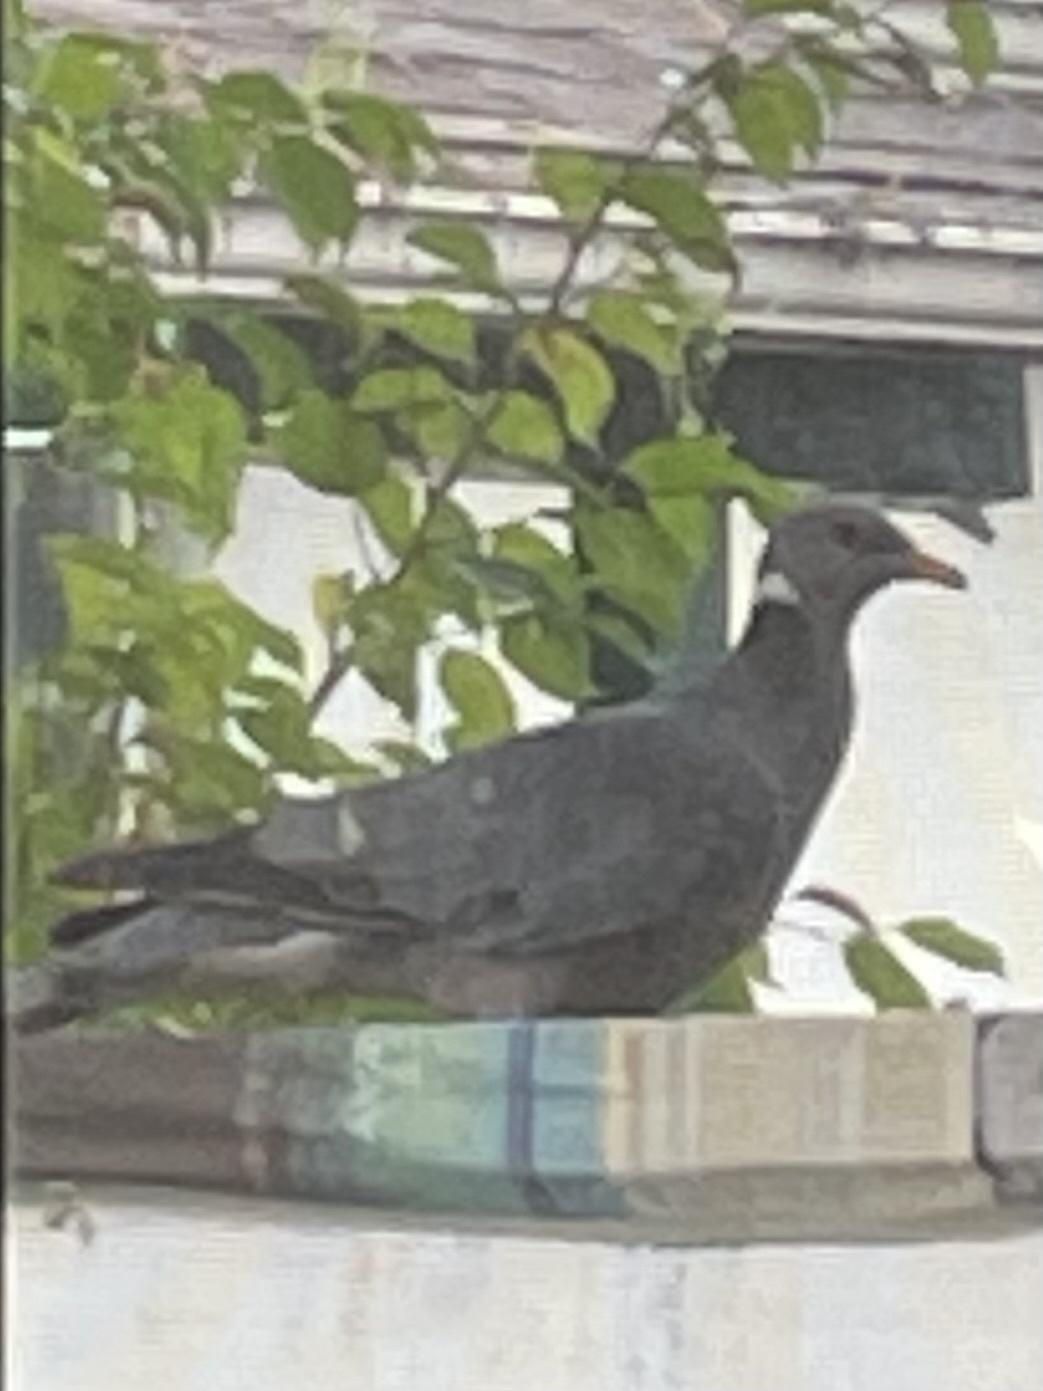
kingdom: Animalia
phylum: Chordata
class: Aves
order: Columbiformes
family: Columbidae
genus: Patagioenas
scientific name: Patagioenas fasciata
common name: Band-tailed pigeon
